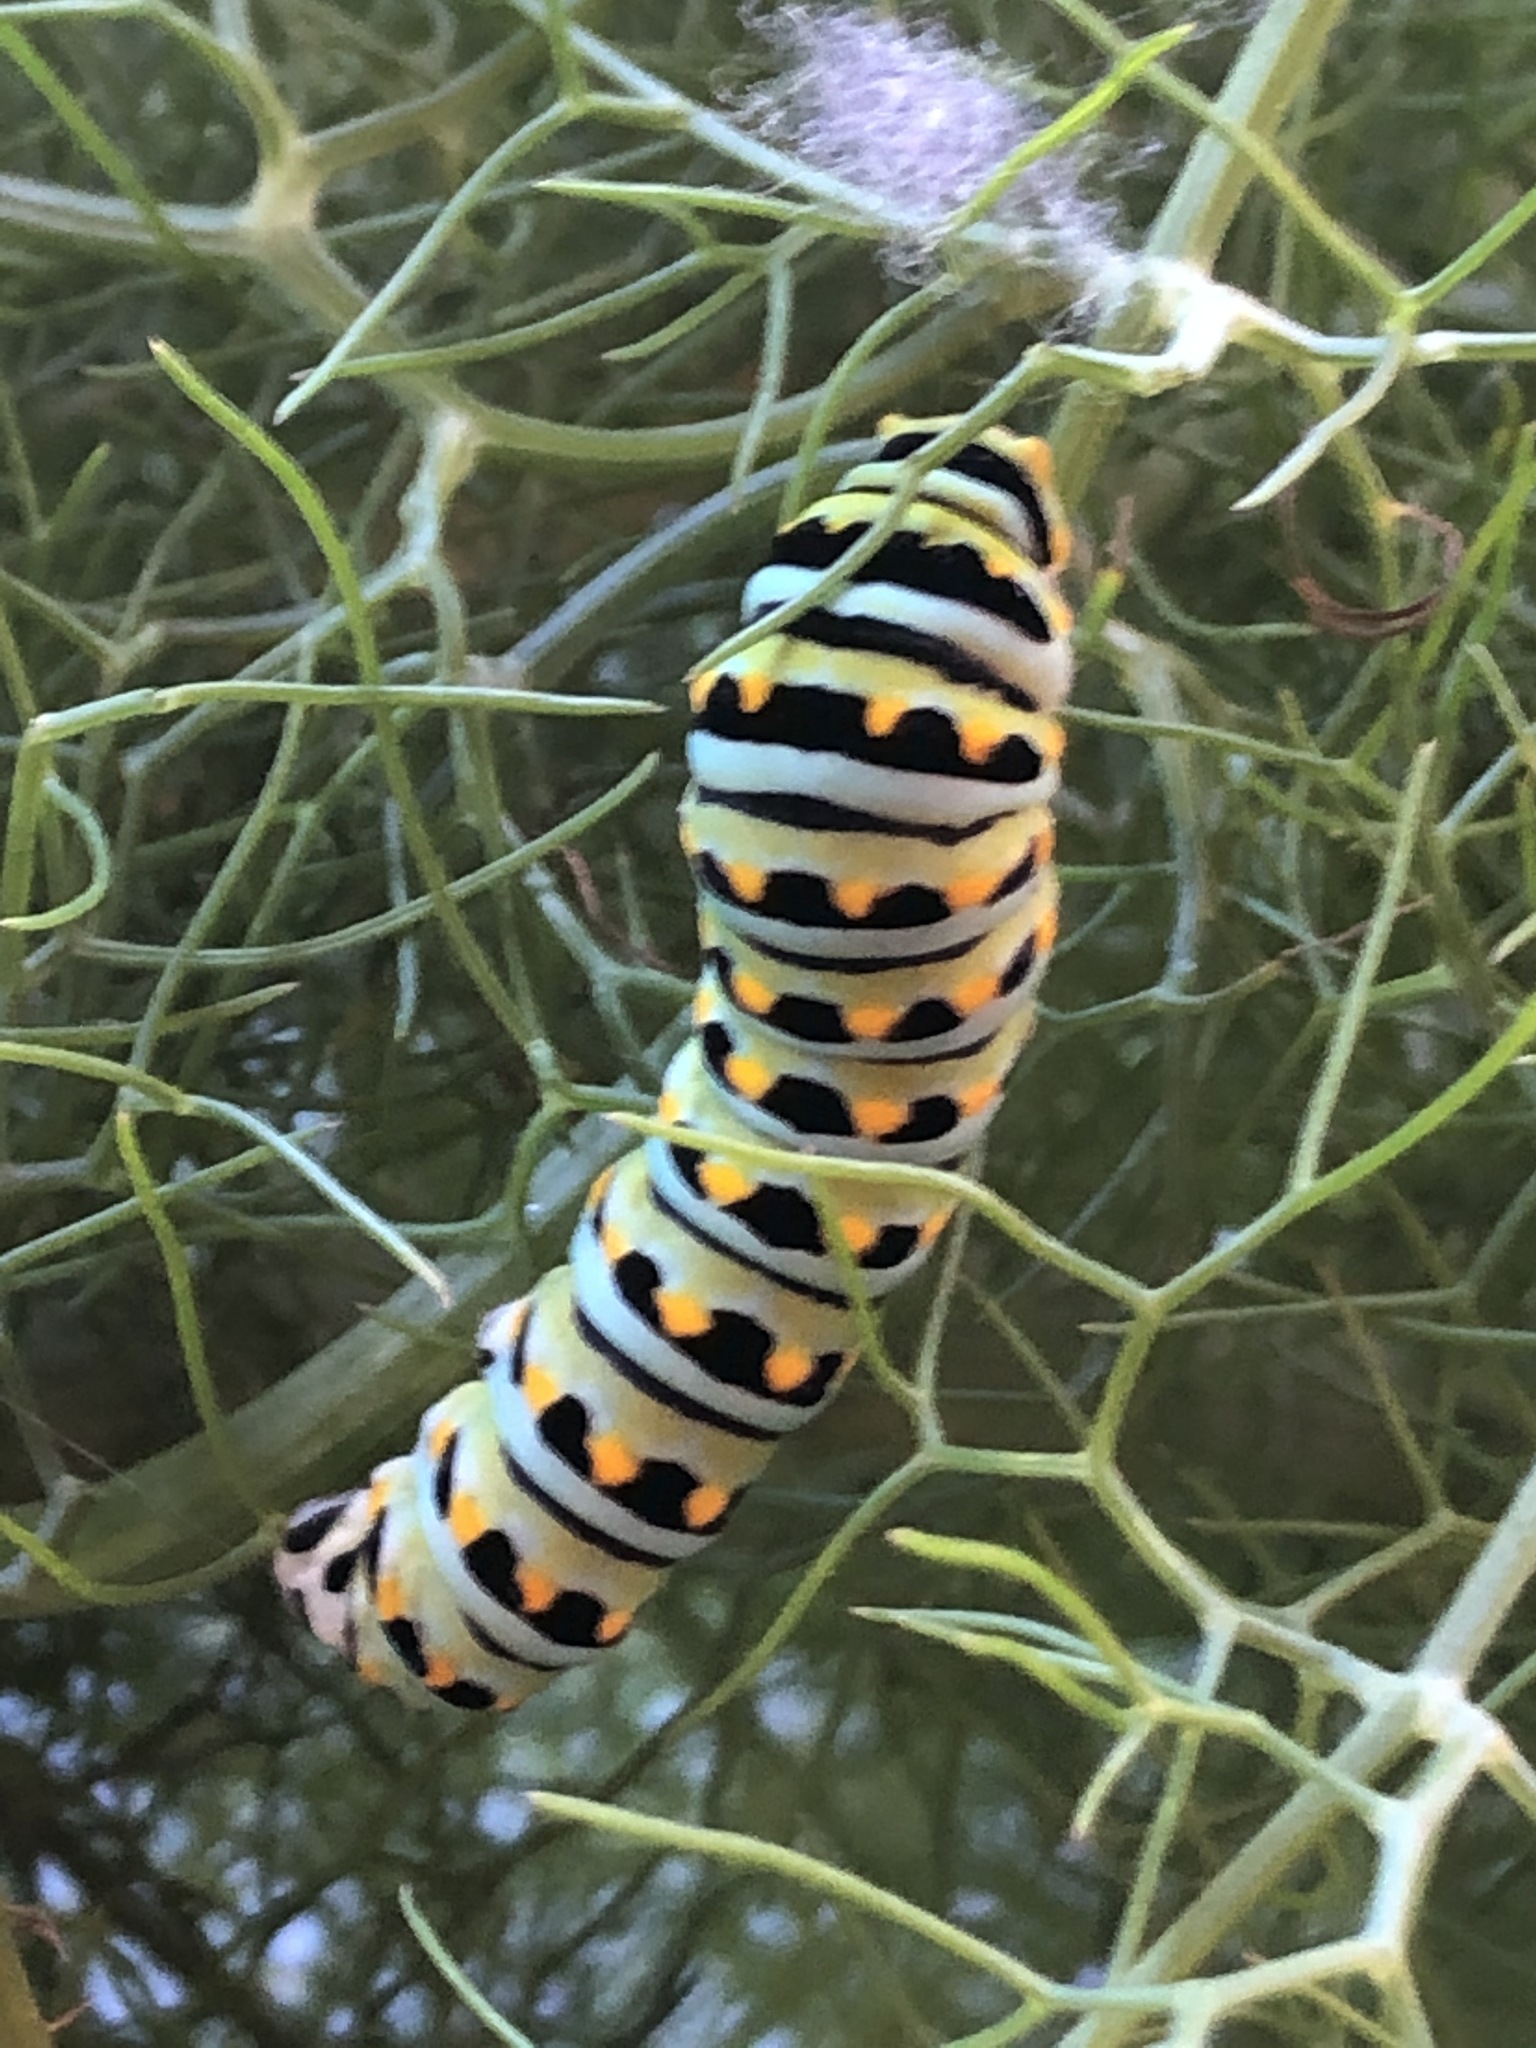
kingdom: Animalia
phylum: Arthropoda
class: Insecta
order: Lepidoptera
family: Papilionidae
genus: Papilio
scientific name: Papilio zelicaon
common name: Anise swallowtail
